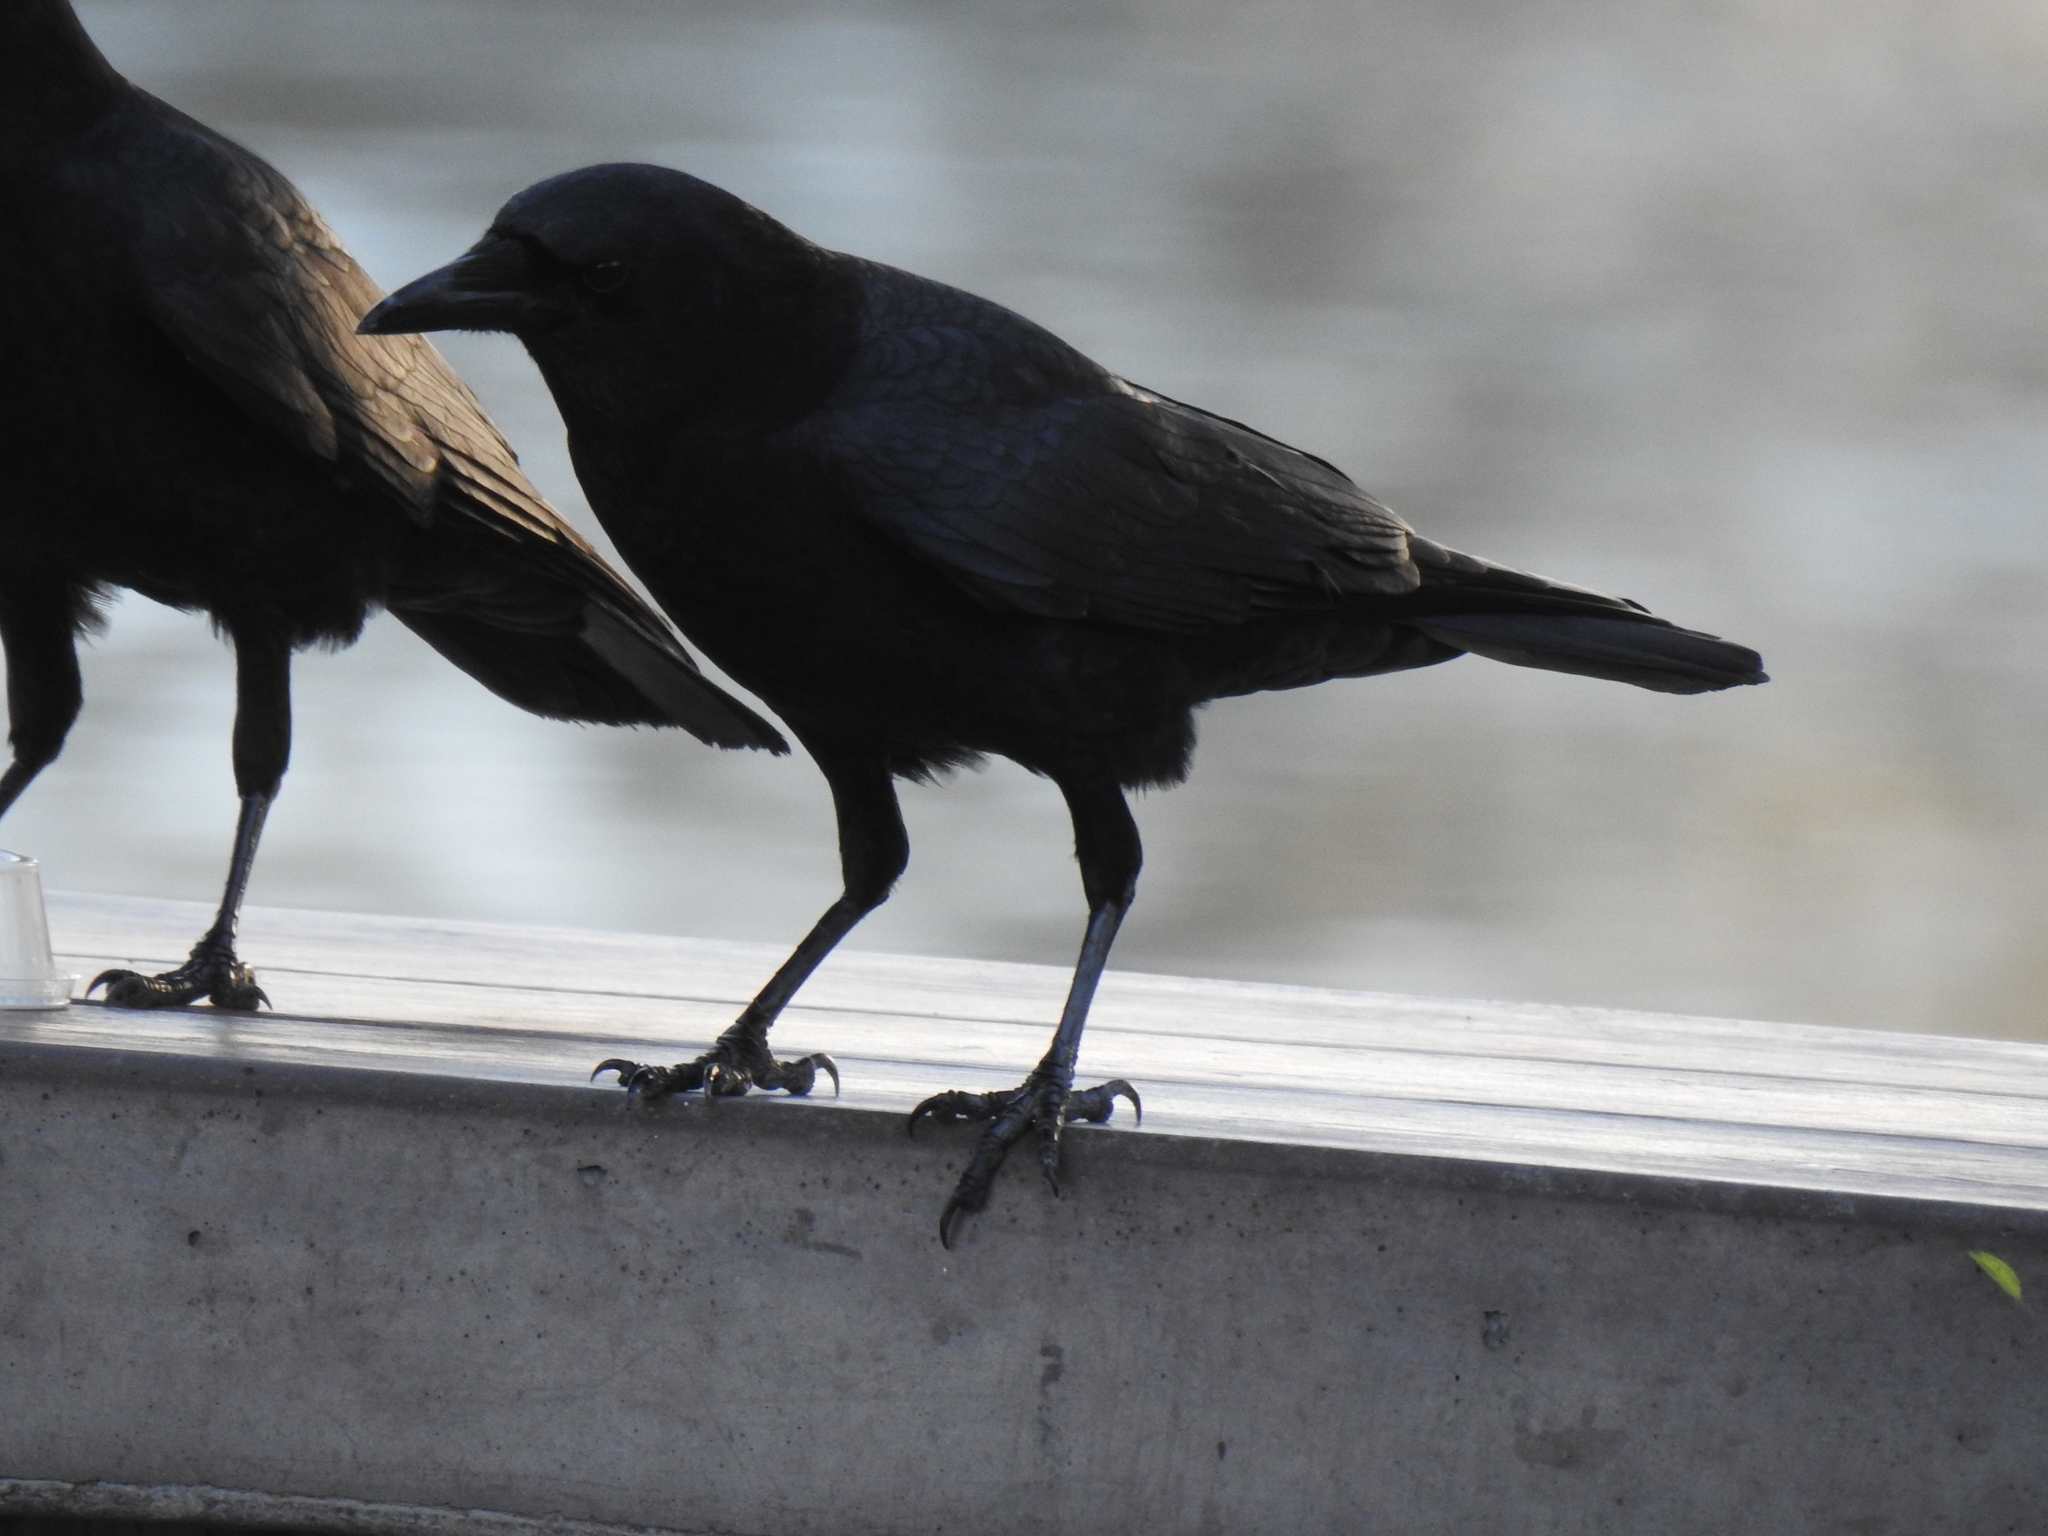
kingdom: Animalia
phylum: Chordata
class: Aves
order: Passeriformes
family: Corvidae
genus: Corvus
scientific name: Corvus brachyrhynchos
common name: American crow
